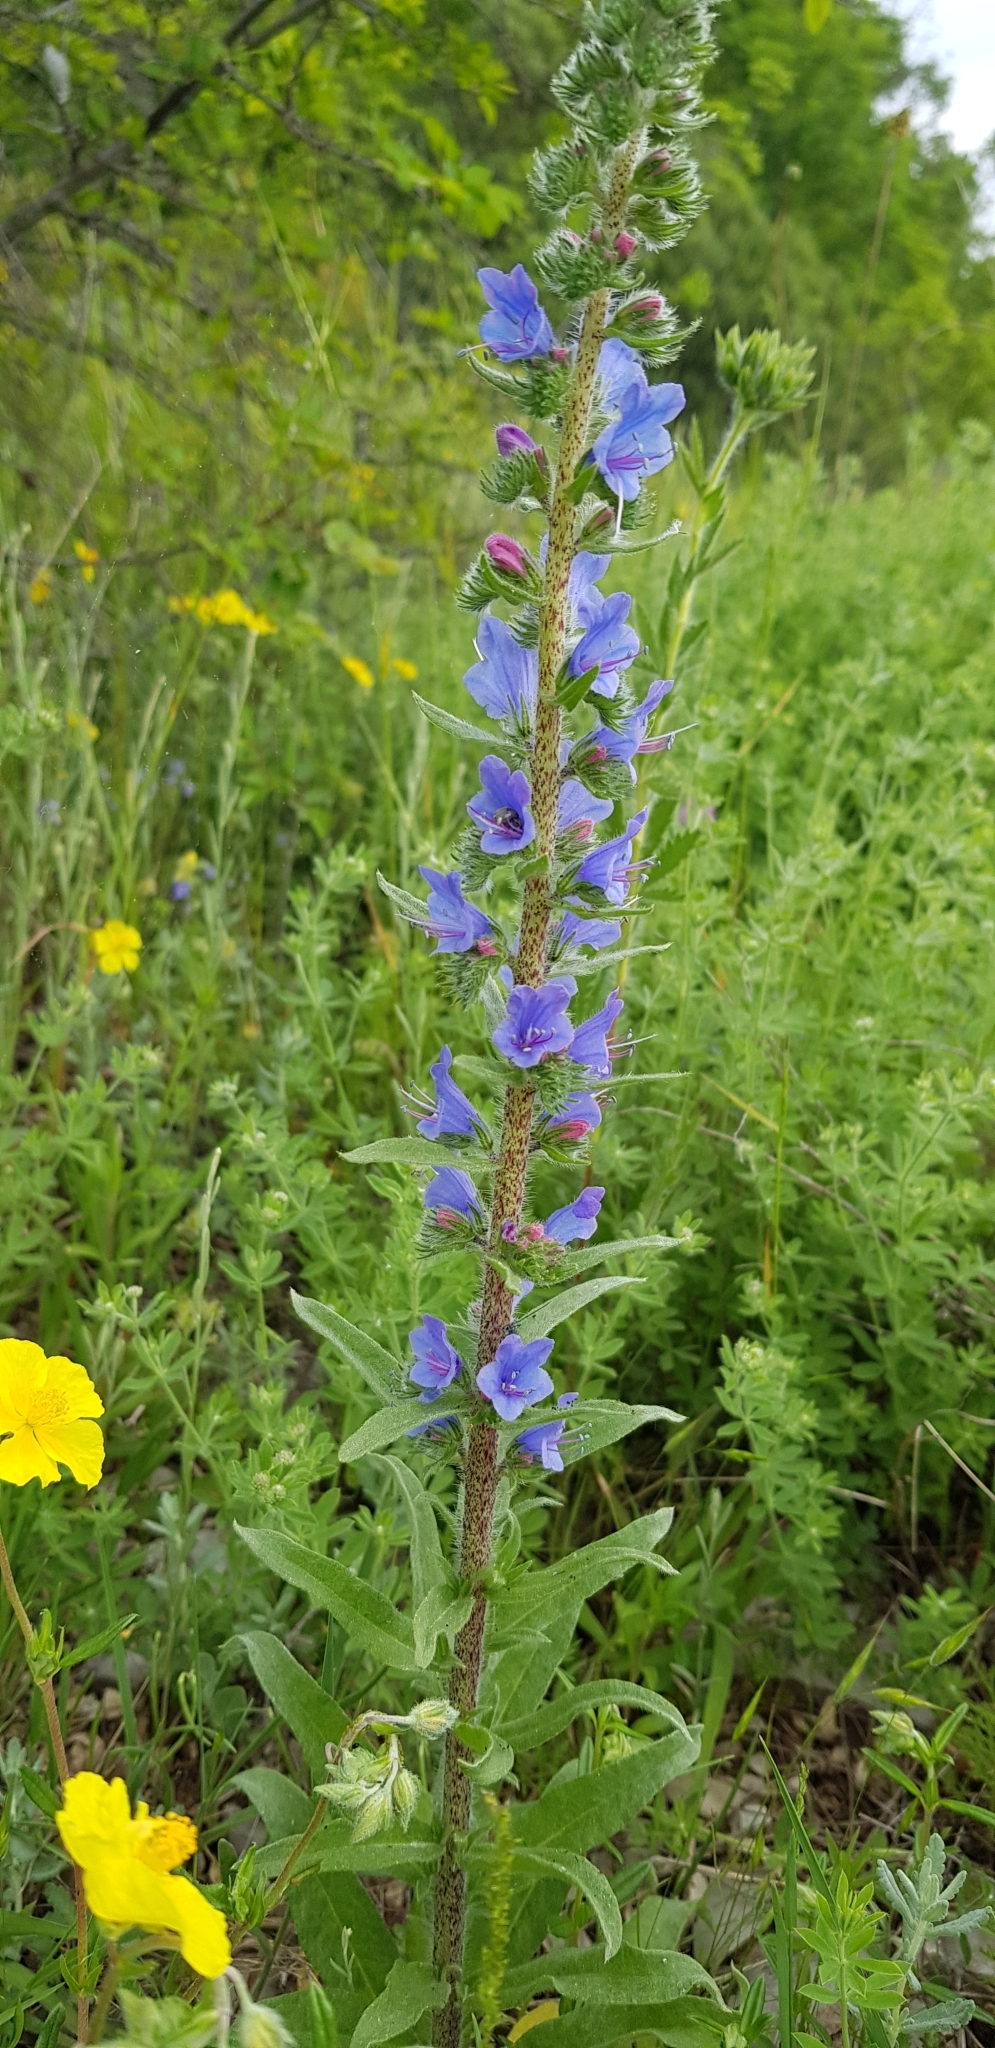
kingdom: Plantae
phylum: Tracheophyta
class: Magnoliopsida
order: Boraginales
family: Boraginaceae
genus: Echium
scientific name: Echium vulgare
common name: Common viper's bugloss
